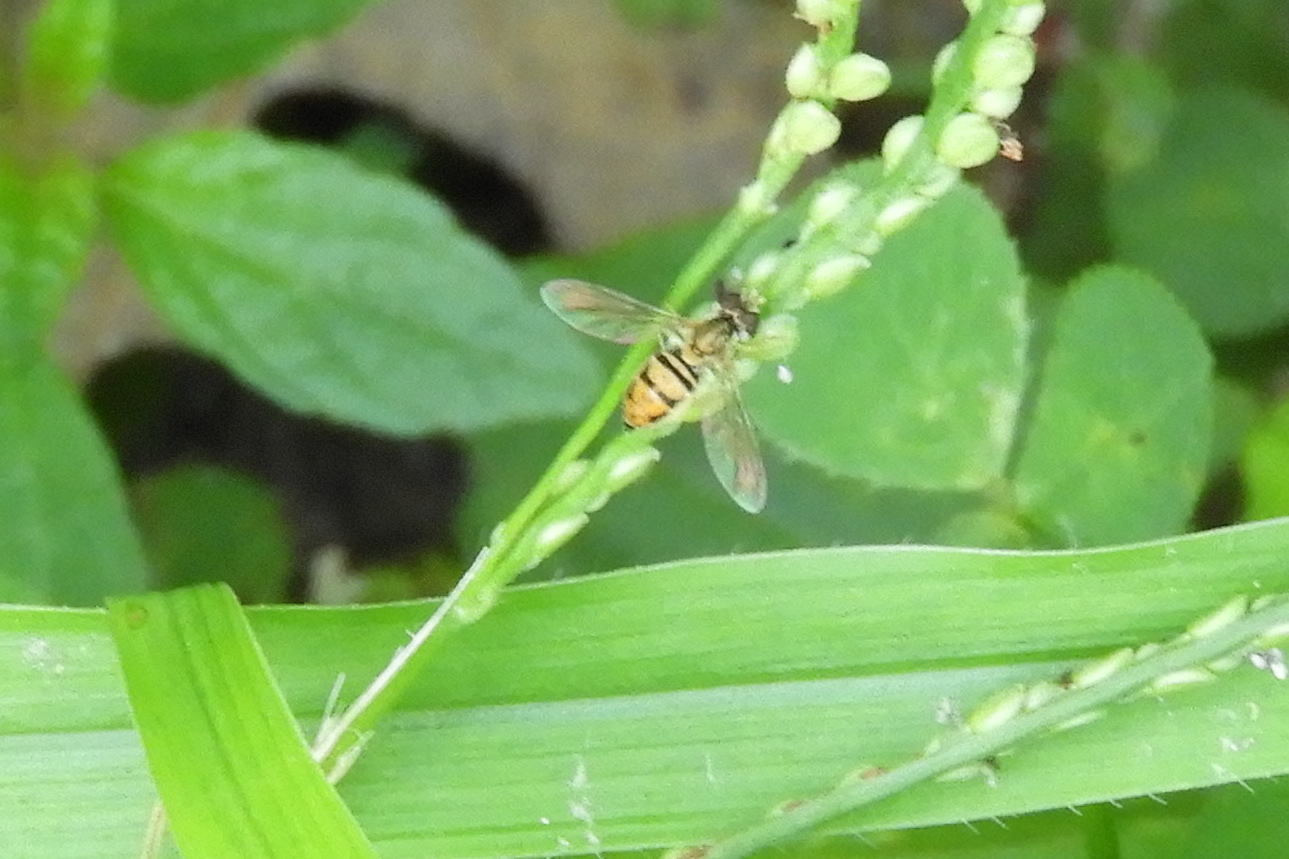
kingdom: Animalia
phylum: Arthropoda
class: Insecta
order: Diptera
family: Syrphidae
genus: Toxomerus
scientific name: Toxomerus marginatus
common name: Syrphid fly
